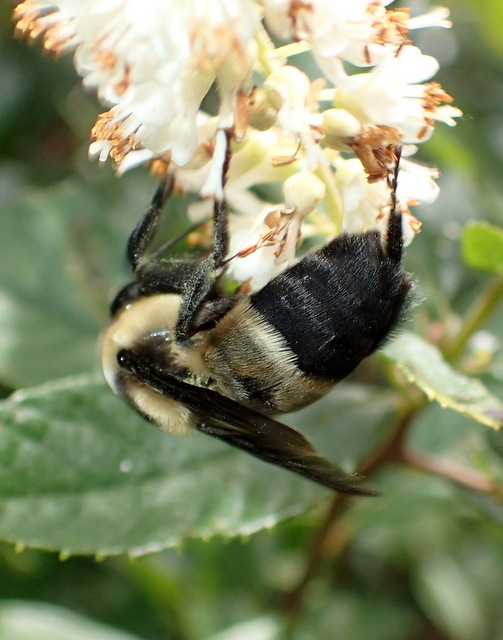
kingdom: Animalia
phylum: Arthropoda
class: Insecta
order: Hymenoptera
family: Apidae
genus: Bombus
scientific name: Bombus fraternus
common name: Southern plains bumble bee
